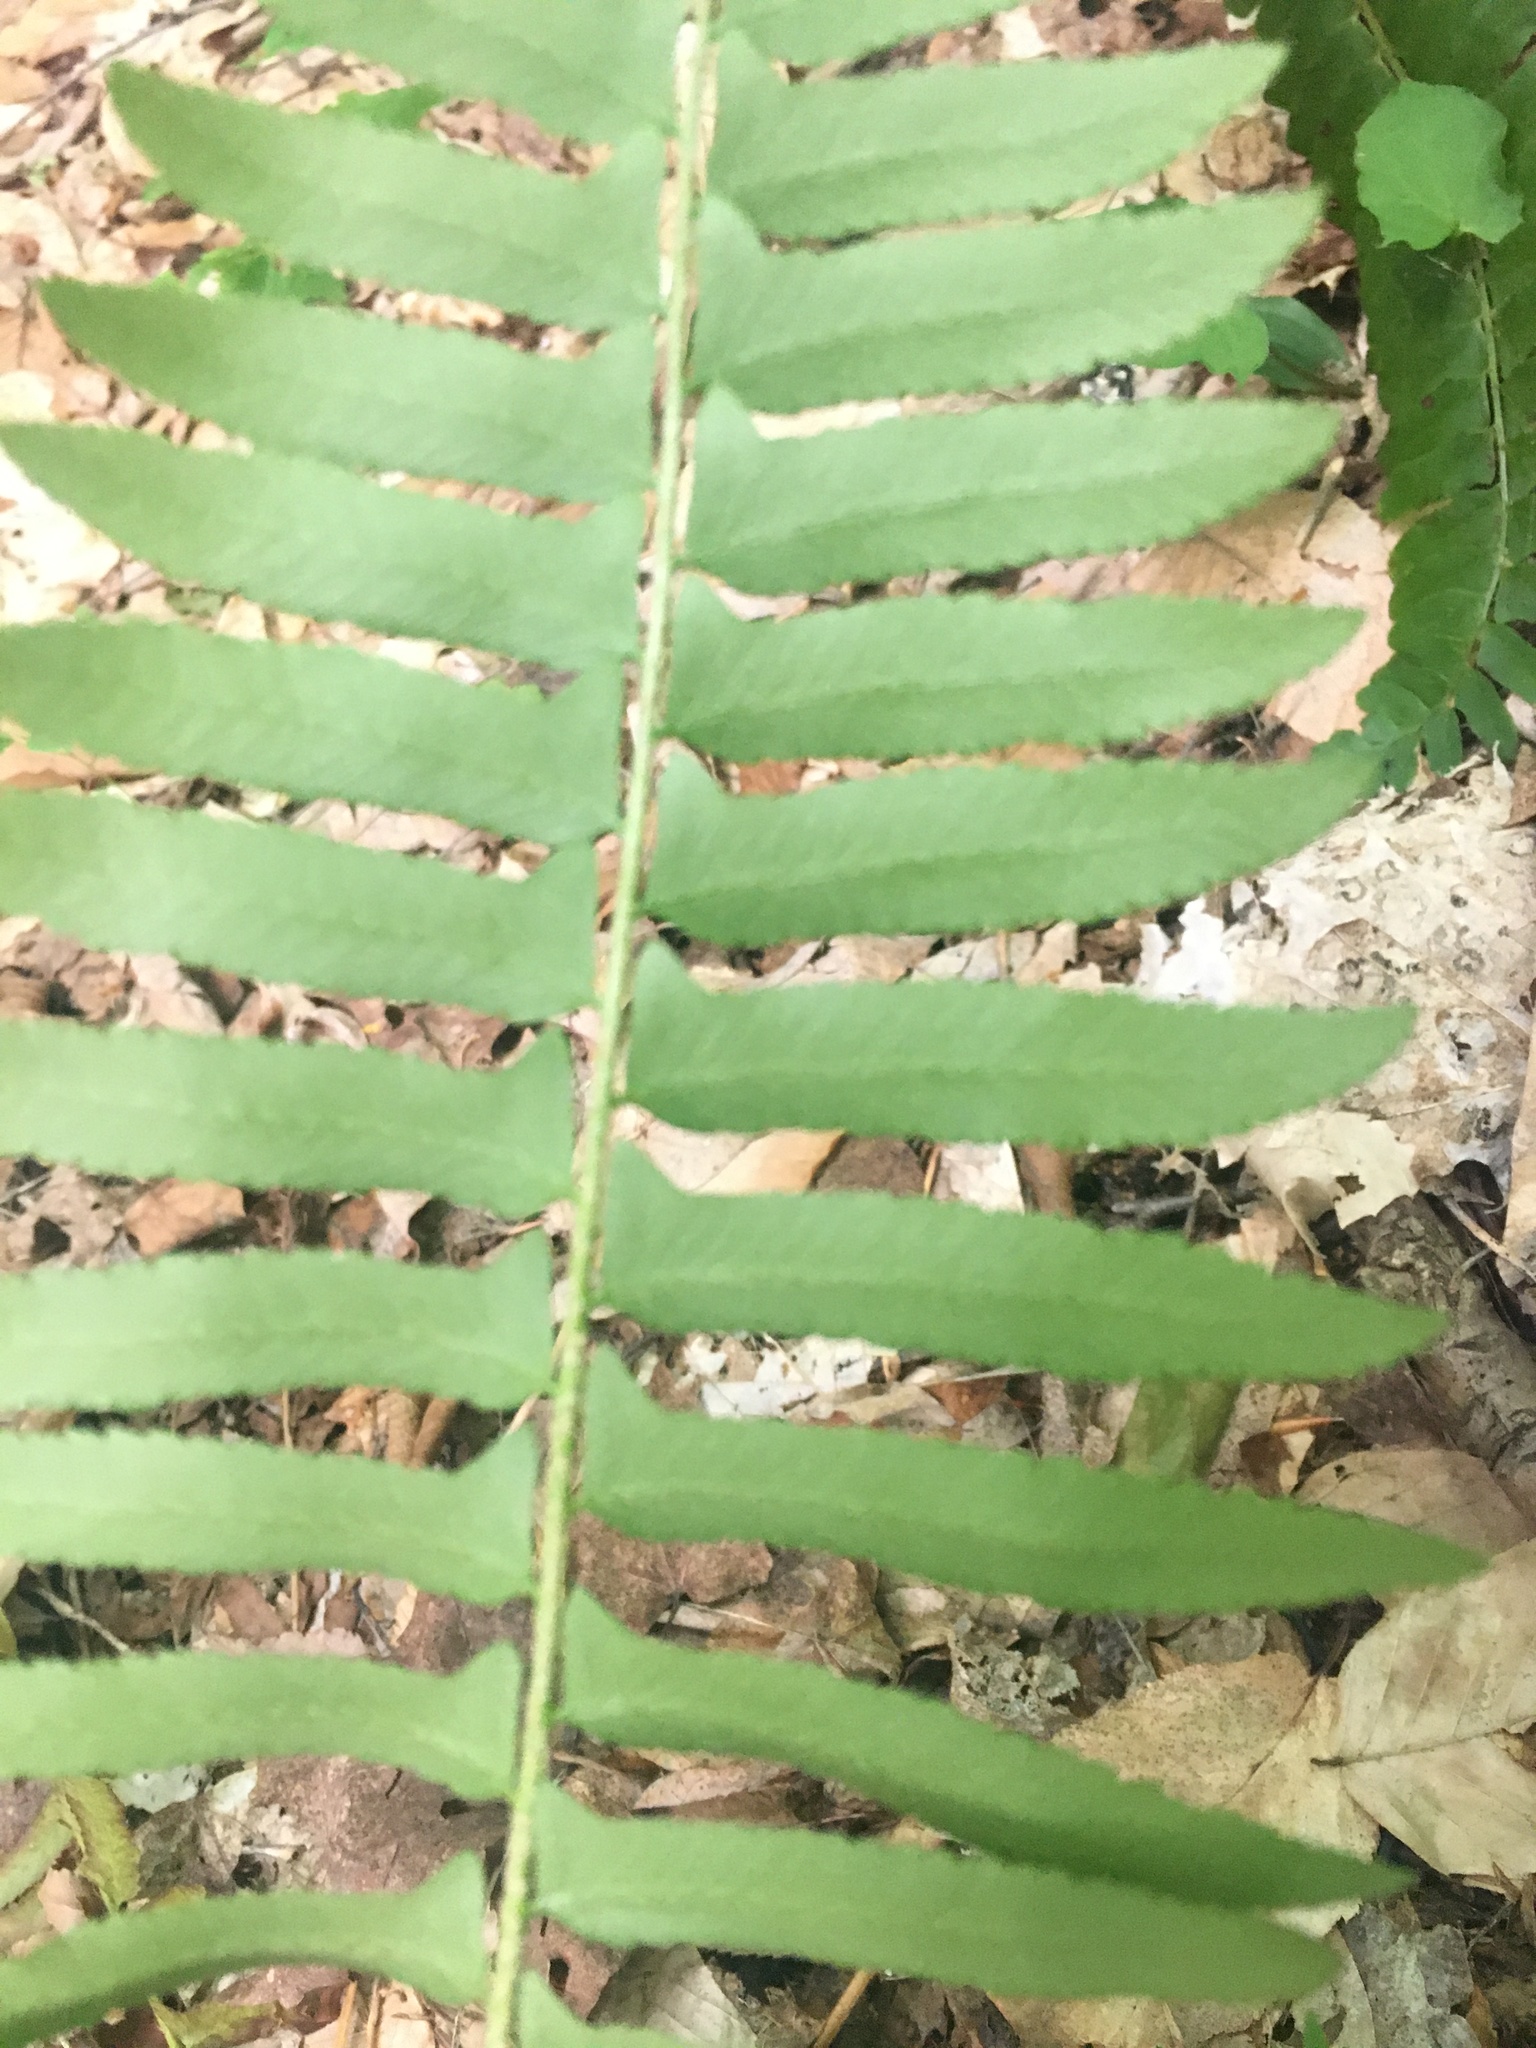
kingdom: Plantae
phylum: Tracheophyta
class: Polypodiopsida
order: Polypodiales
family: Dryopteridaceae
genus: Polystichum
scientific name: Polystichum acrostichoides
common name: Christmas fern
